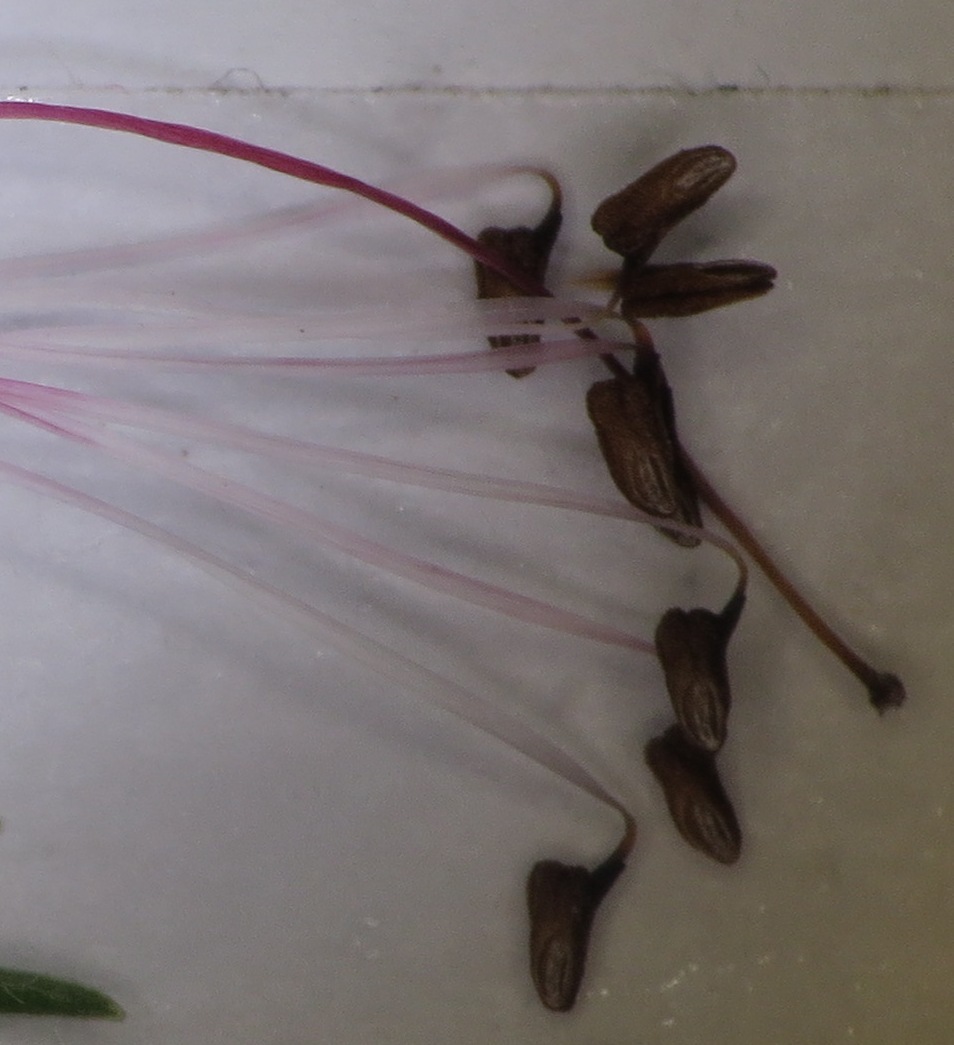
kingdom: Plantae
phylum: Tracheophyta
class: Magnoliopsida
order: Ericales
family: Ericaceae
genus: Erica
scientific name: Erica macowanii
